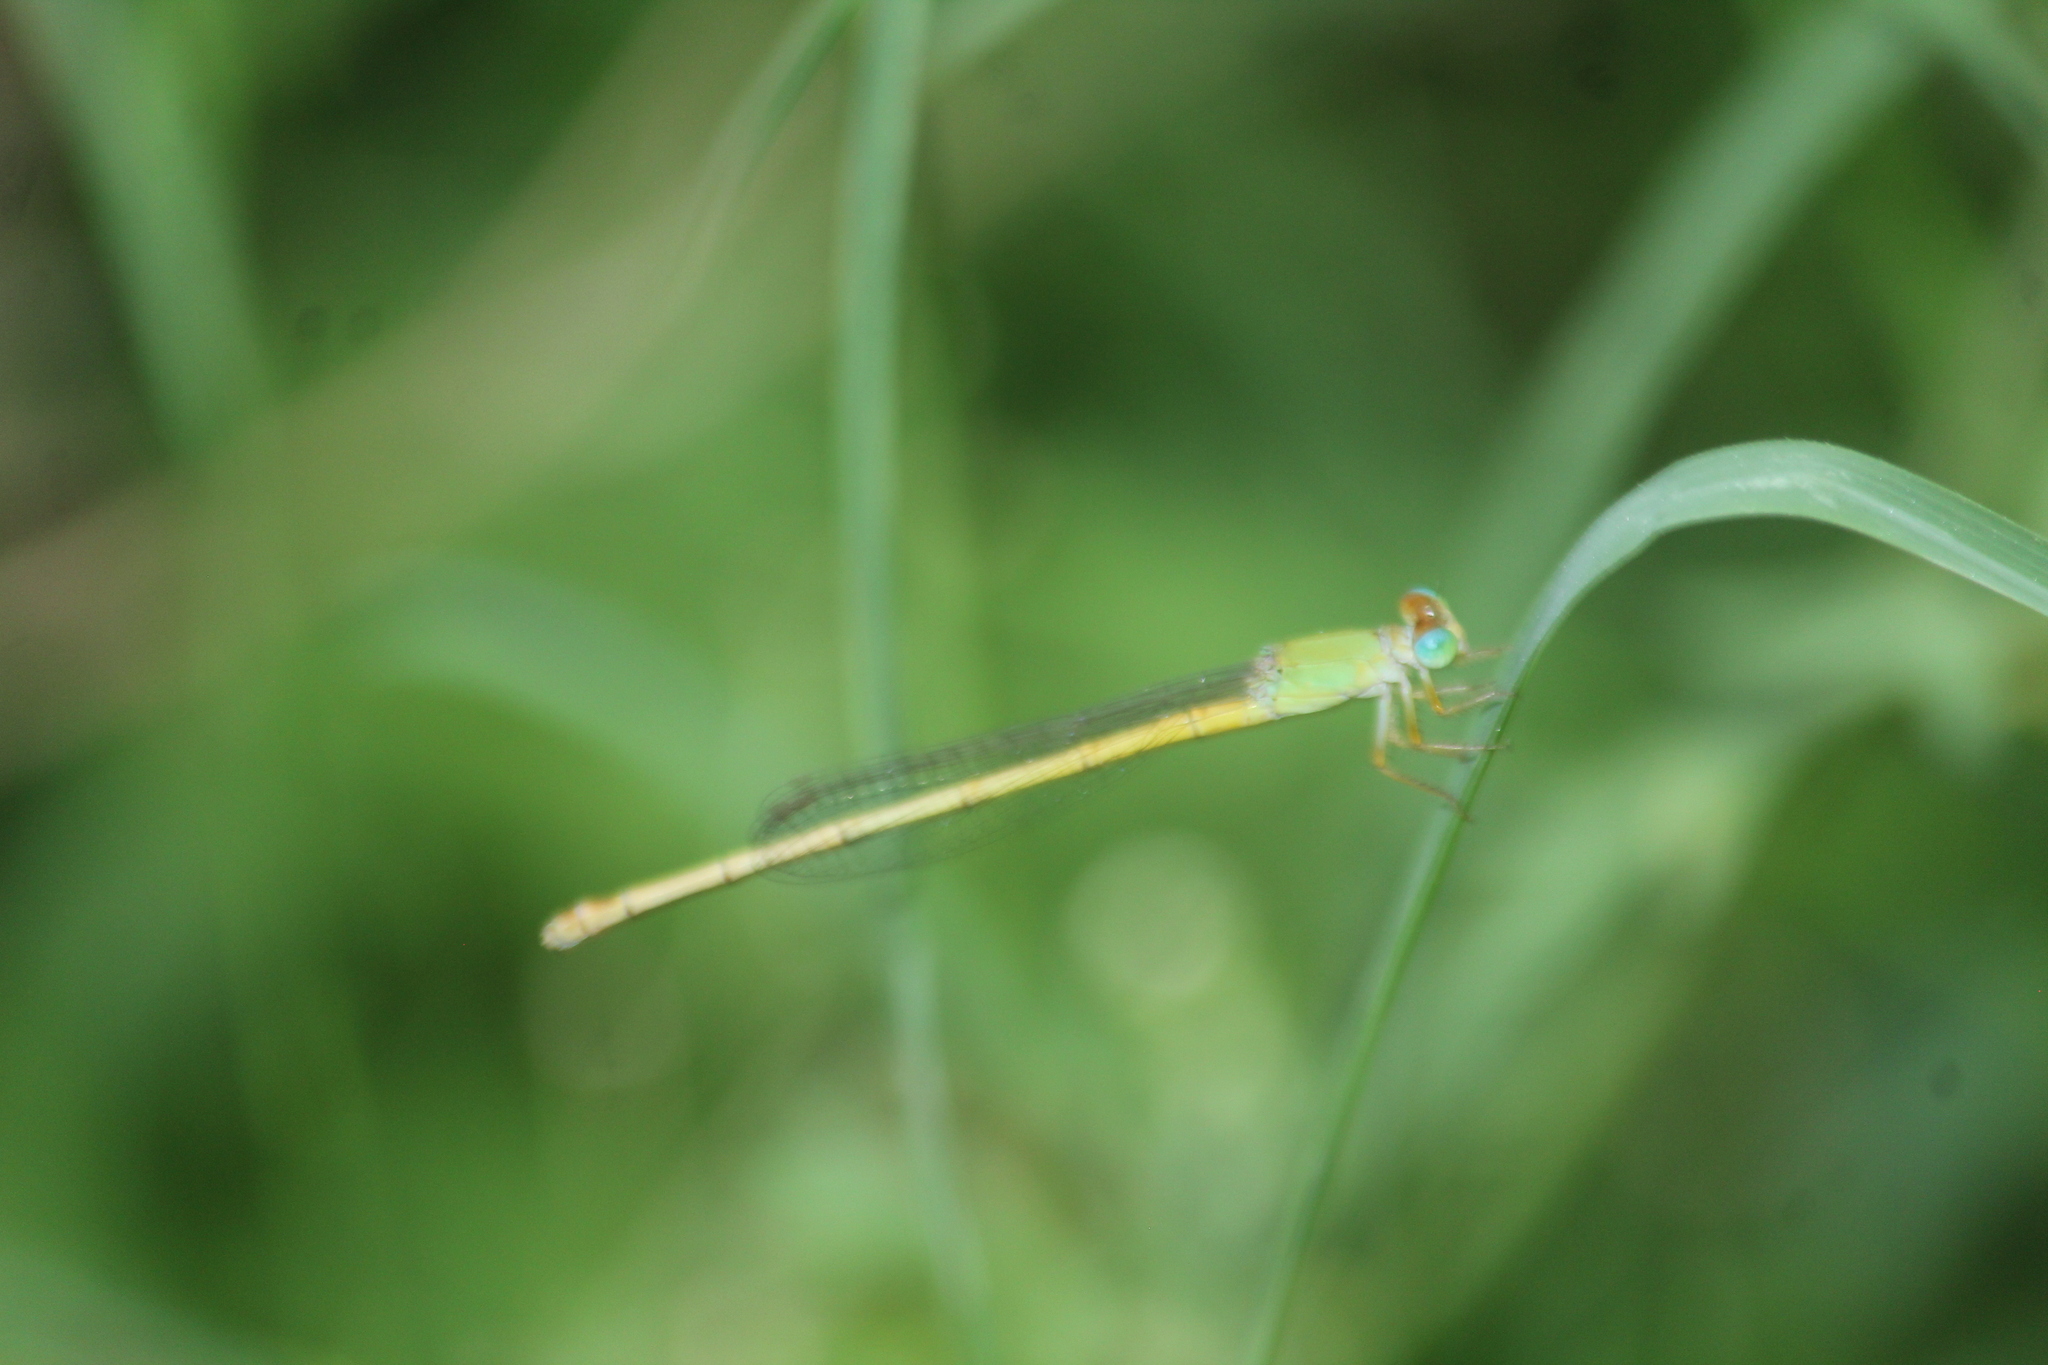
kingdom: Animalia
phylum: Arthropoda
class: Insecta
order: Odonata
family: Coenagrionidae
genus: Ceriagrion
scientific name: Ceriagrion coromandelianum
